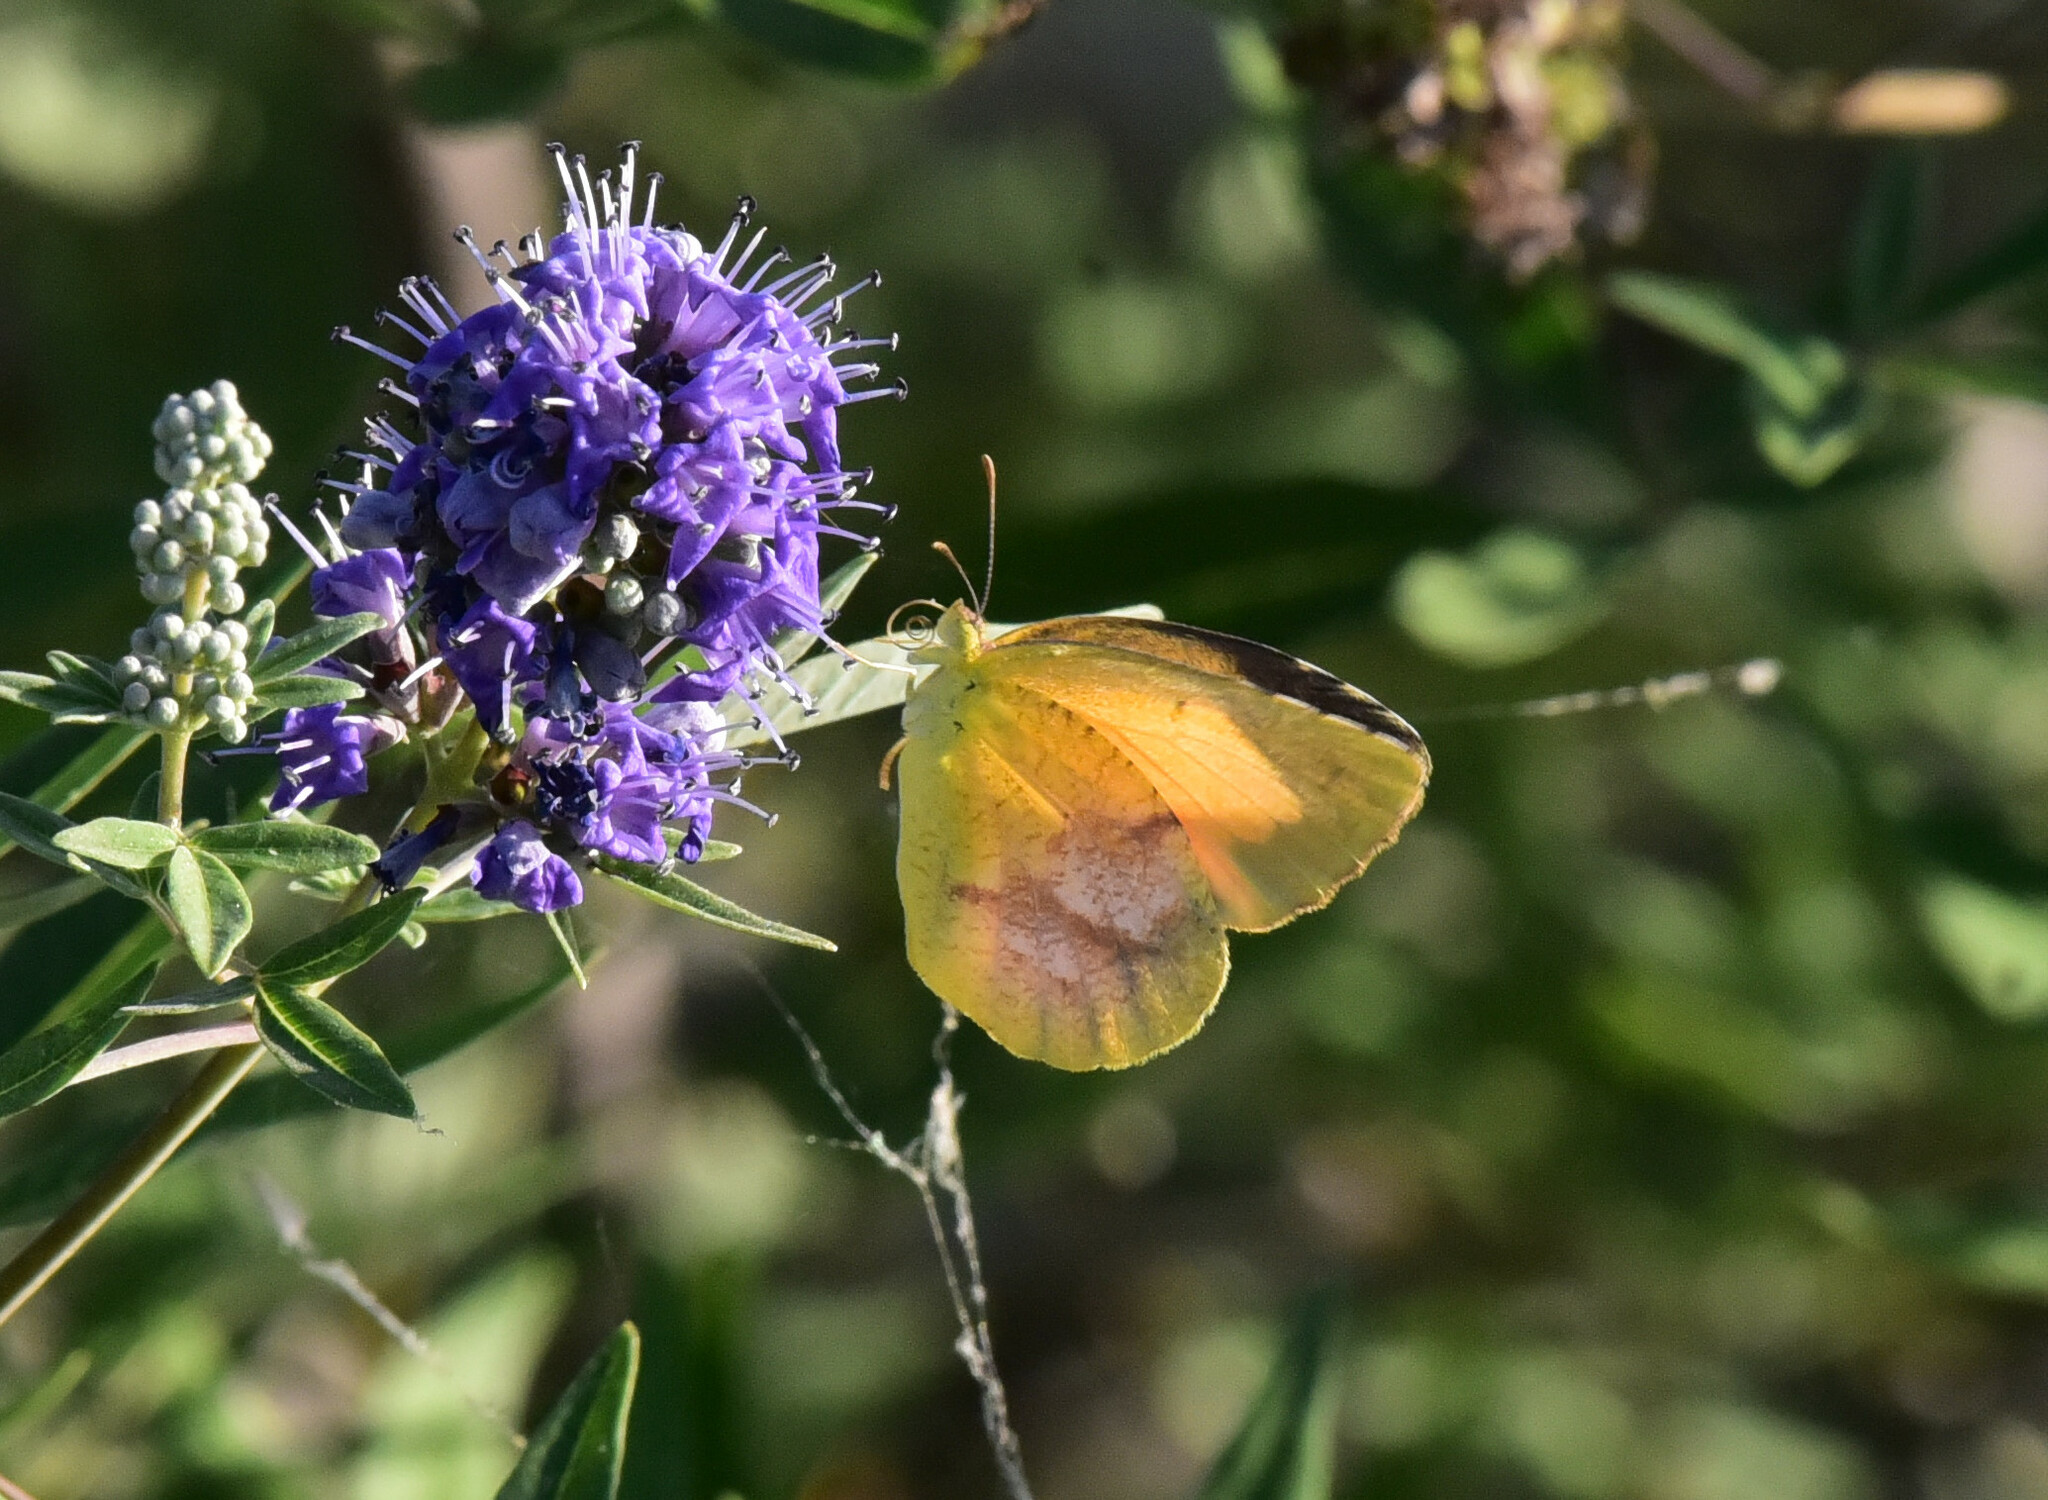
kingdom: Animalia
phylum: Arthropoda
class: Insecta
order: Lepidoptera
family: Pieridae
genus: Abaeis
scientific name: Abaeis nicippe
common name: Sleepy orange
